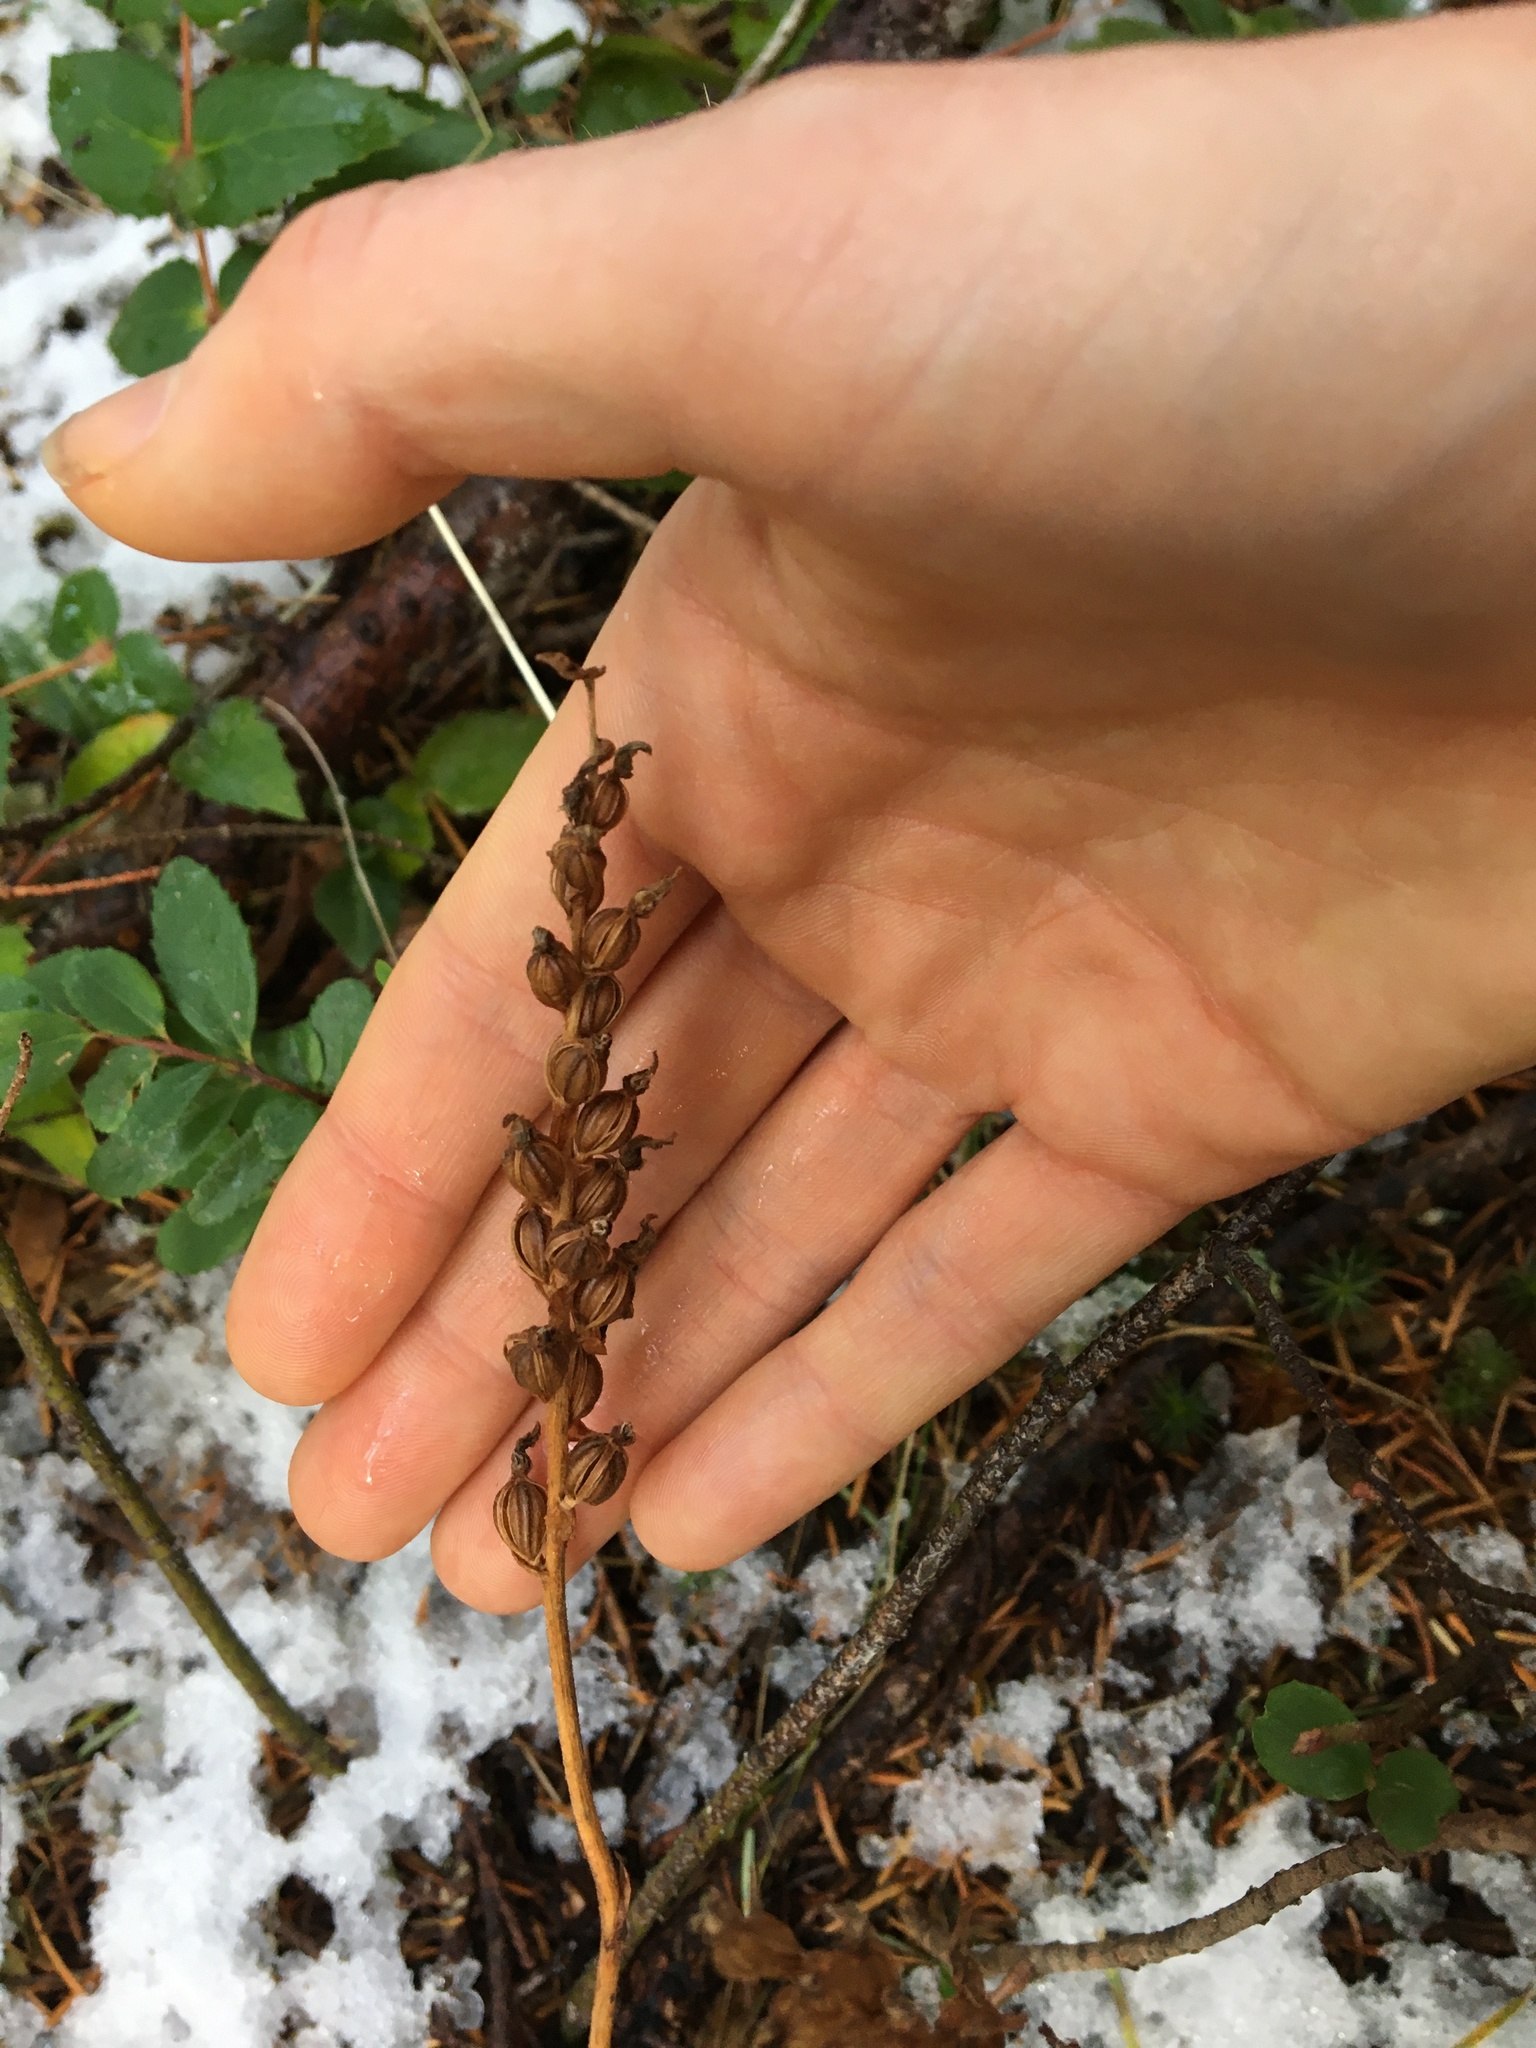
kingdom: Plantae
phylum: Tracheophyta
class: Liliopsida
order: Asparagales
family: Orchidaceae
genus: Goodyera
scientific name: Goodyera oblongifolia
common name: Giant rattlesnake-plantain
